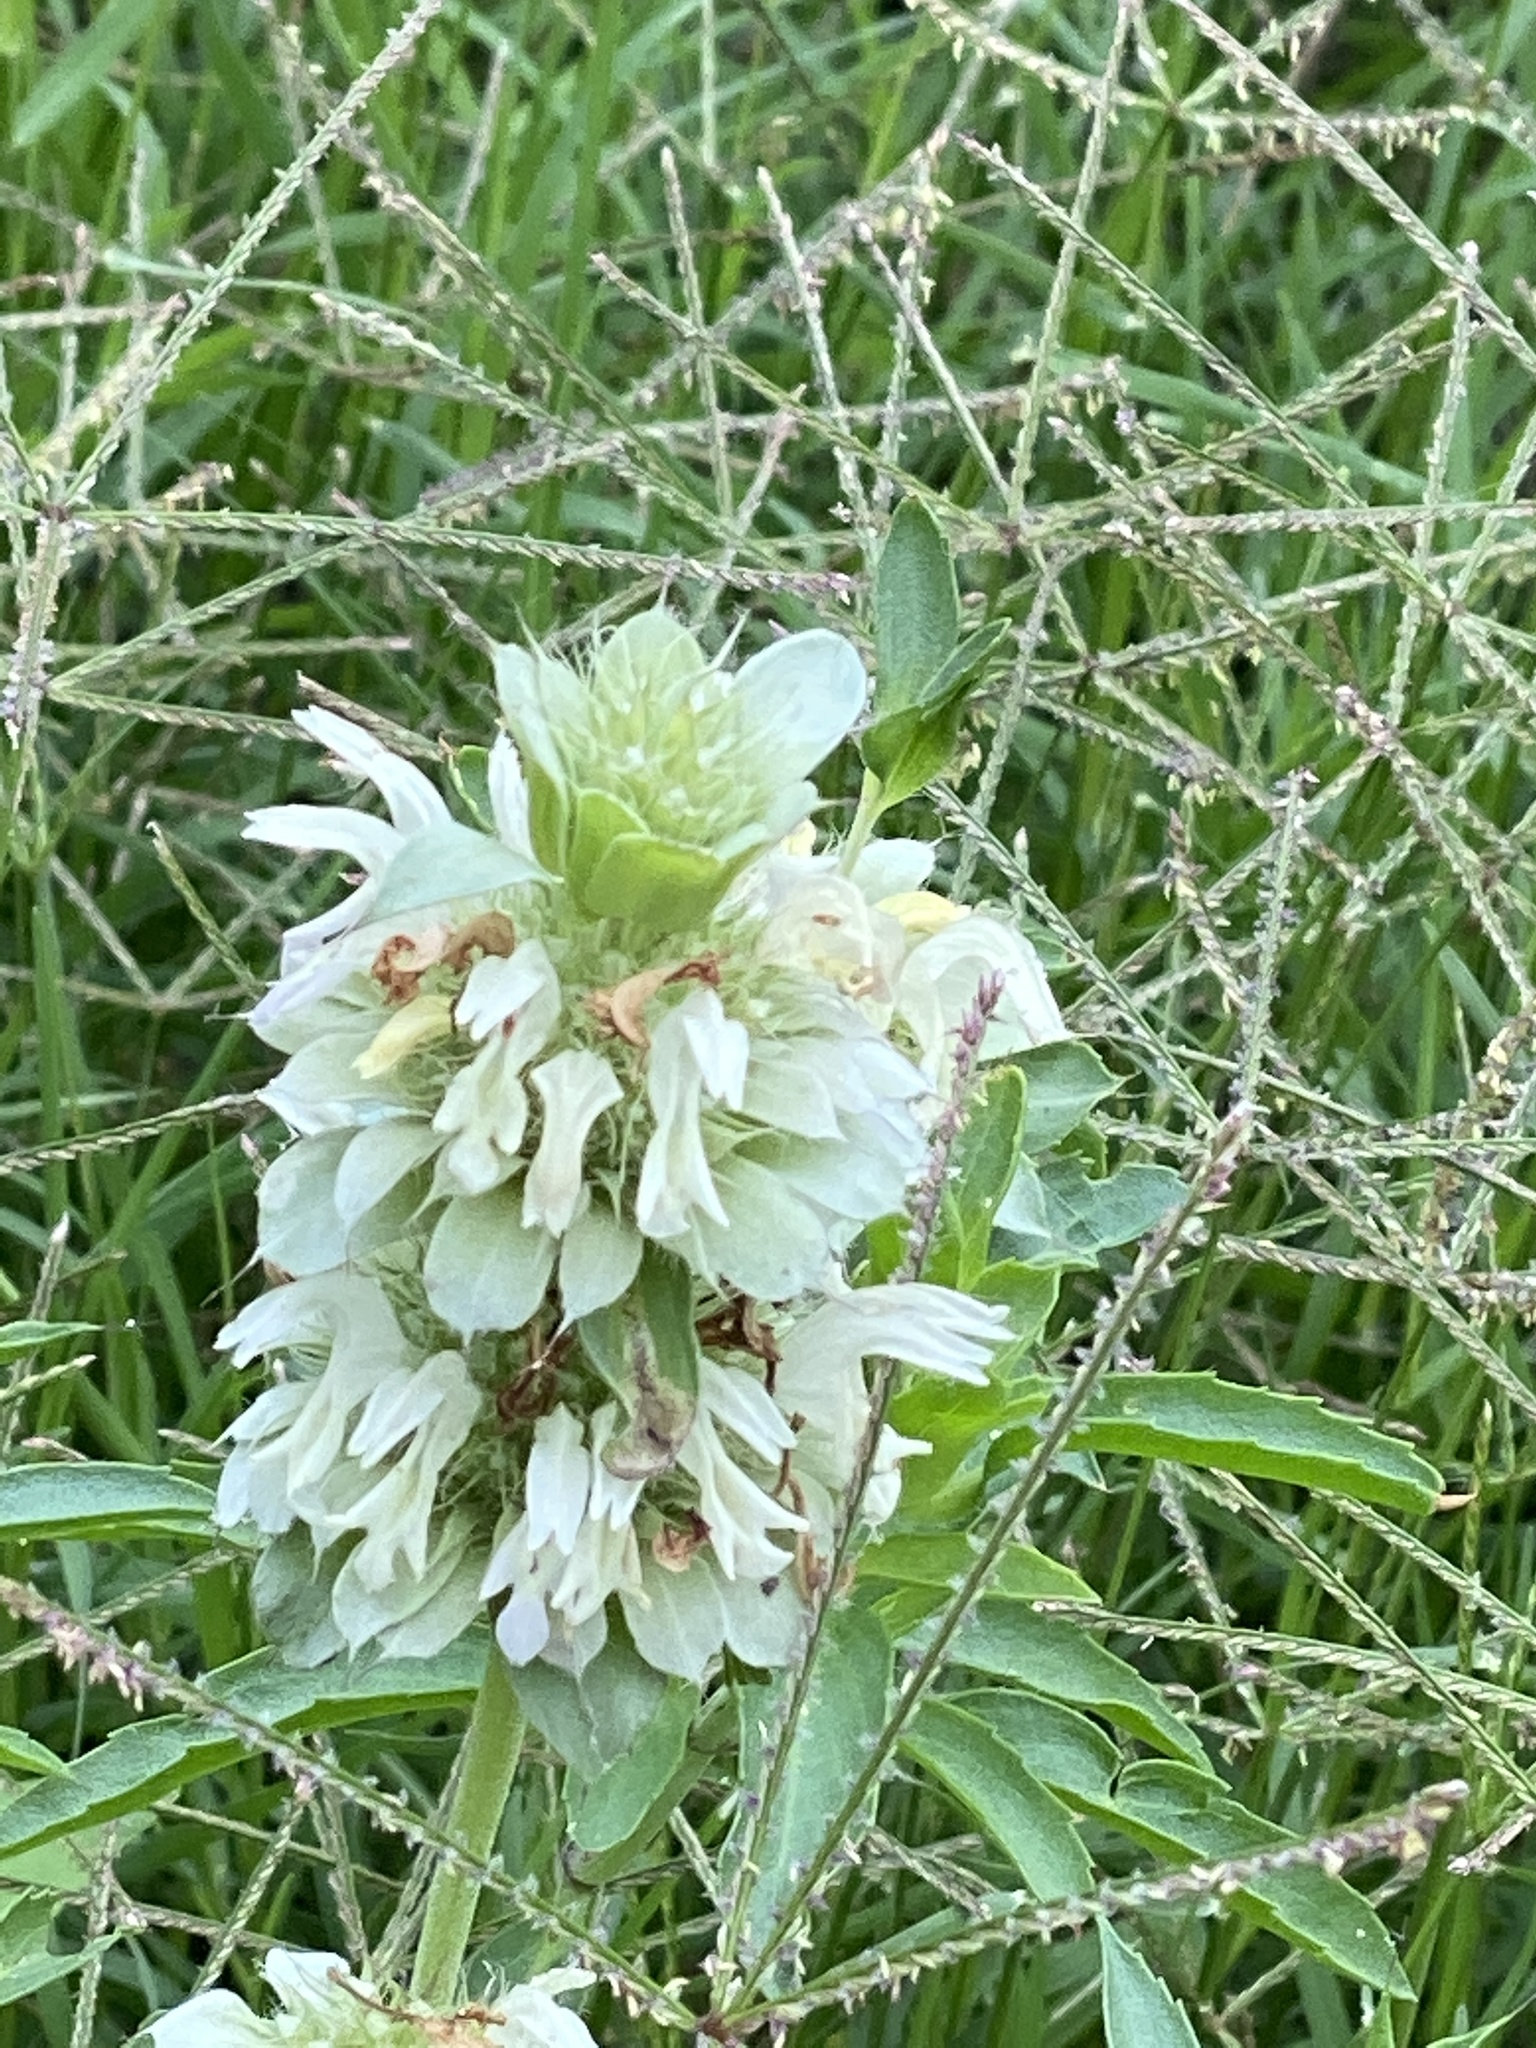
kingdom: Plantae
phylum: Tracheophyta
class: Magnoliopsida
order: Lamiales
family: Lamiaceae
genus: Monarda
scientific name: Monarda citriodora
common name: Lemon beebalm
